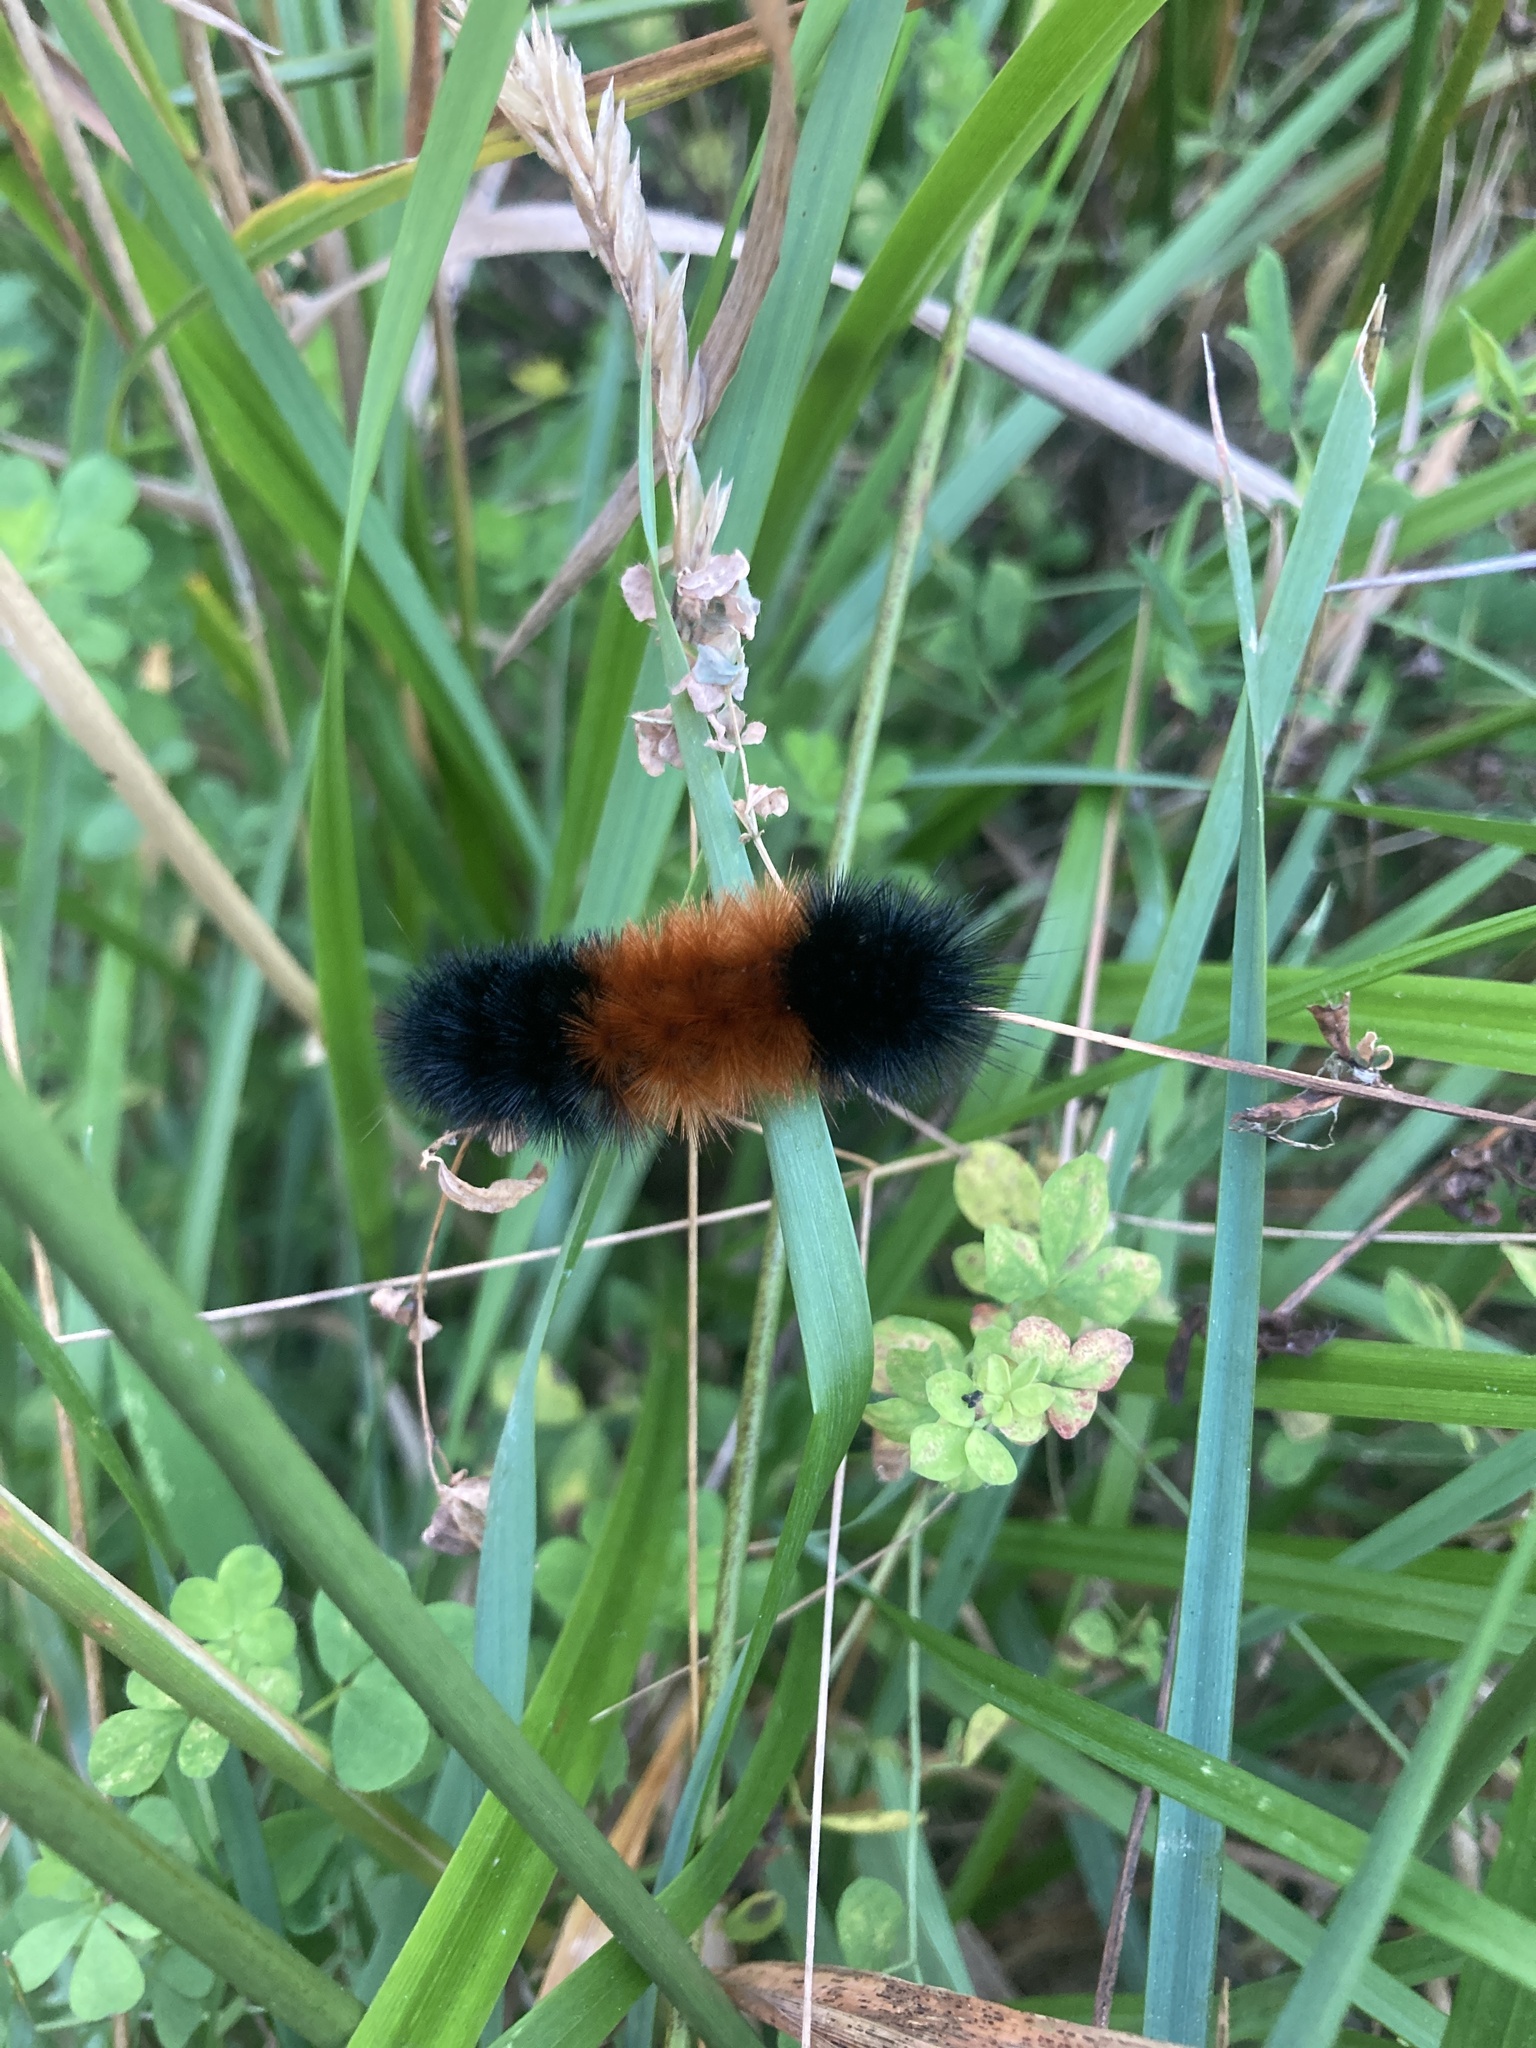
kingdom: Animalia
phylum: Arthropoda
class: Insecta
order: Lepidoptera
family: Erebidae
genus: Pyrrharctia
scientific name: Pyrrharctia isabella
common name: Isabella tiger moth
